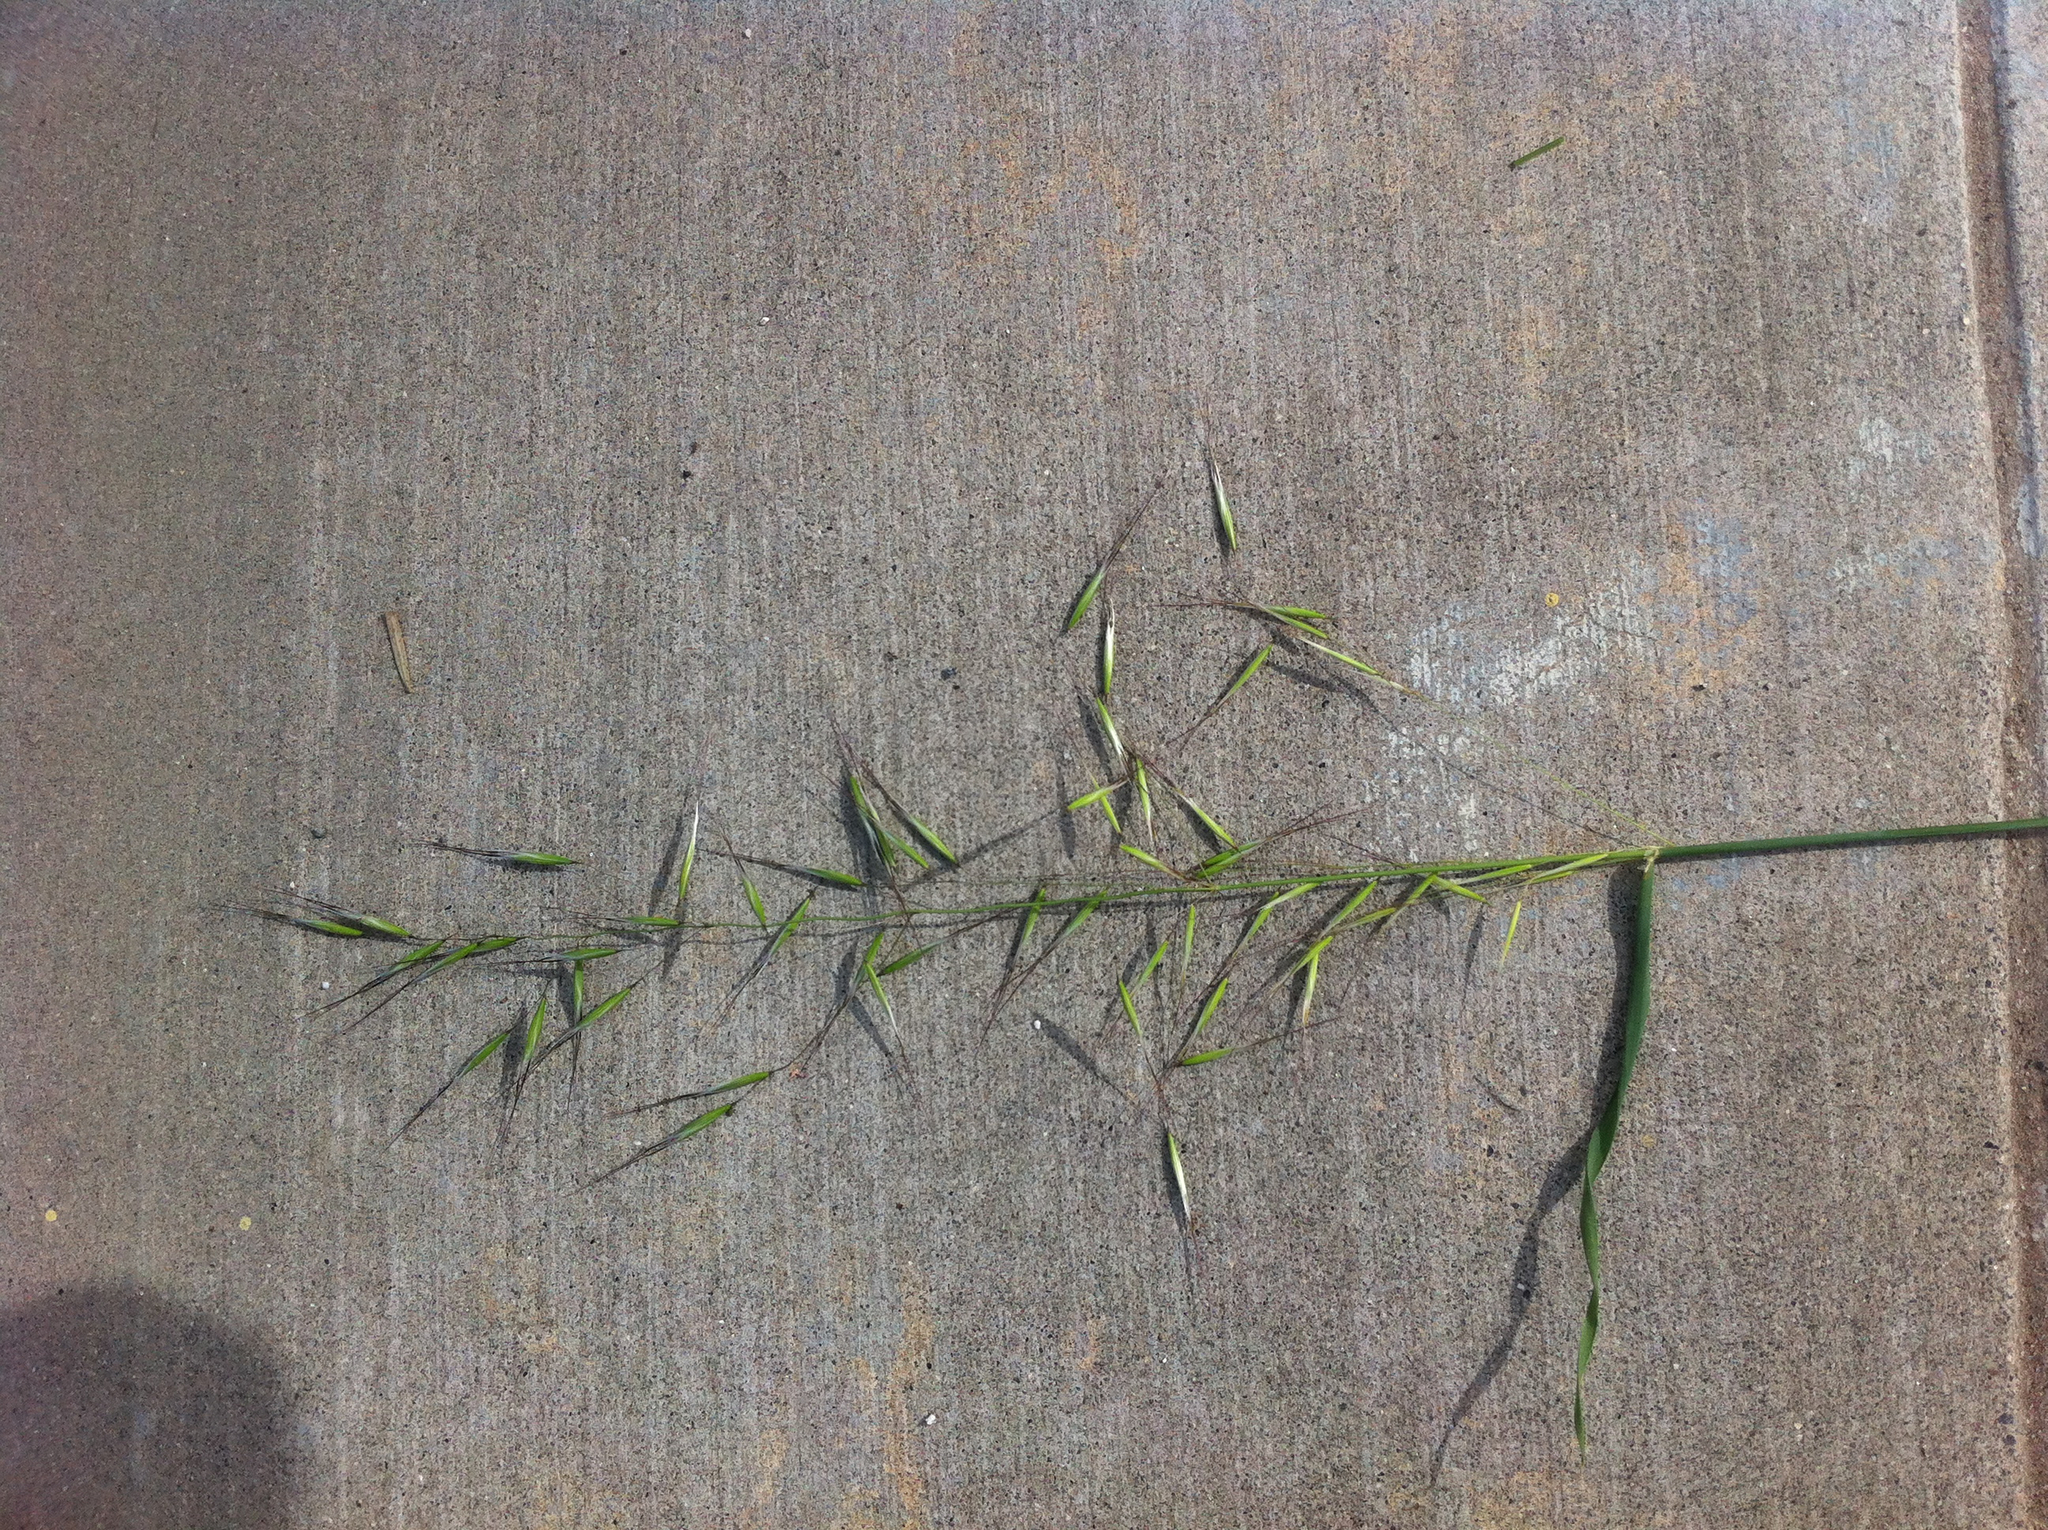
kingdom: Plantae
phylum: Tracheophyta
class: Liliopsida
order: Poales
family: Poaceae
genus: Avena
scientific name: Avena barbata
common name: Slender oat
